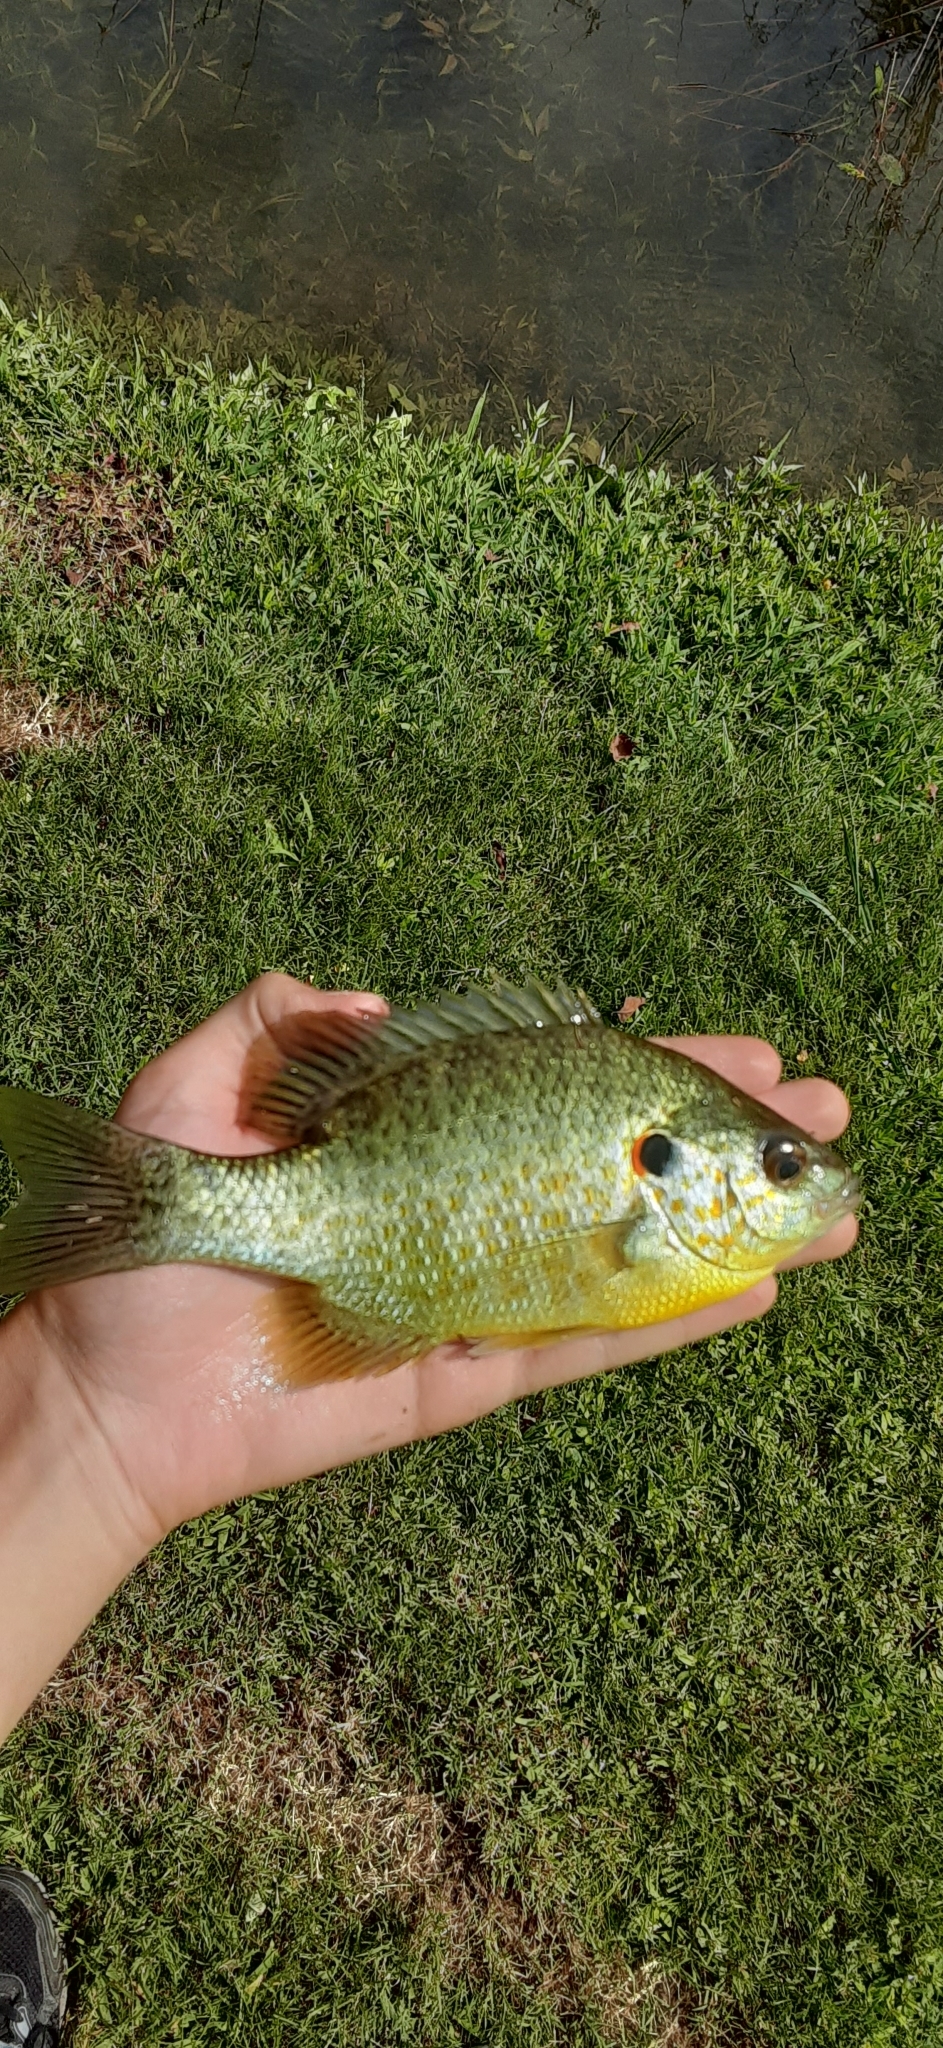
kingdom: Animalia
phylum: Chordata
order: Perciformes
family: Centrarchidae
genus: Lepomis
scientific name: Lepomis microlophus
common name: Redear sunfish
